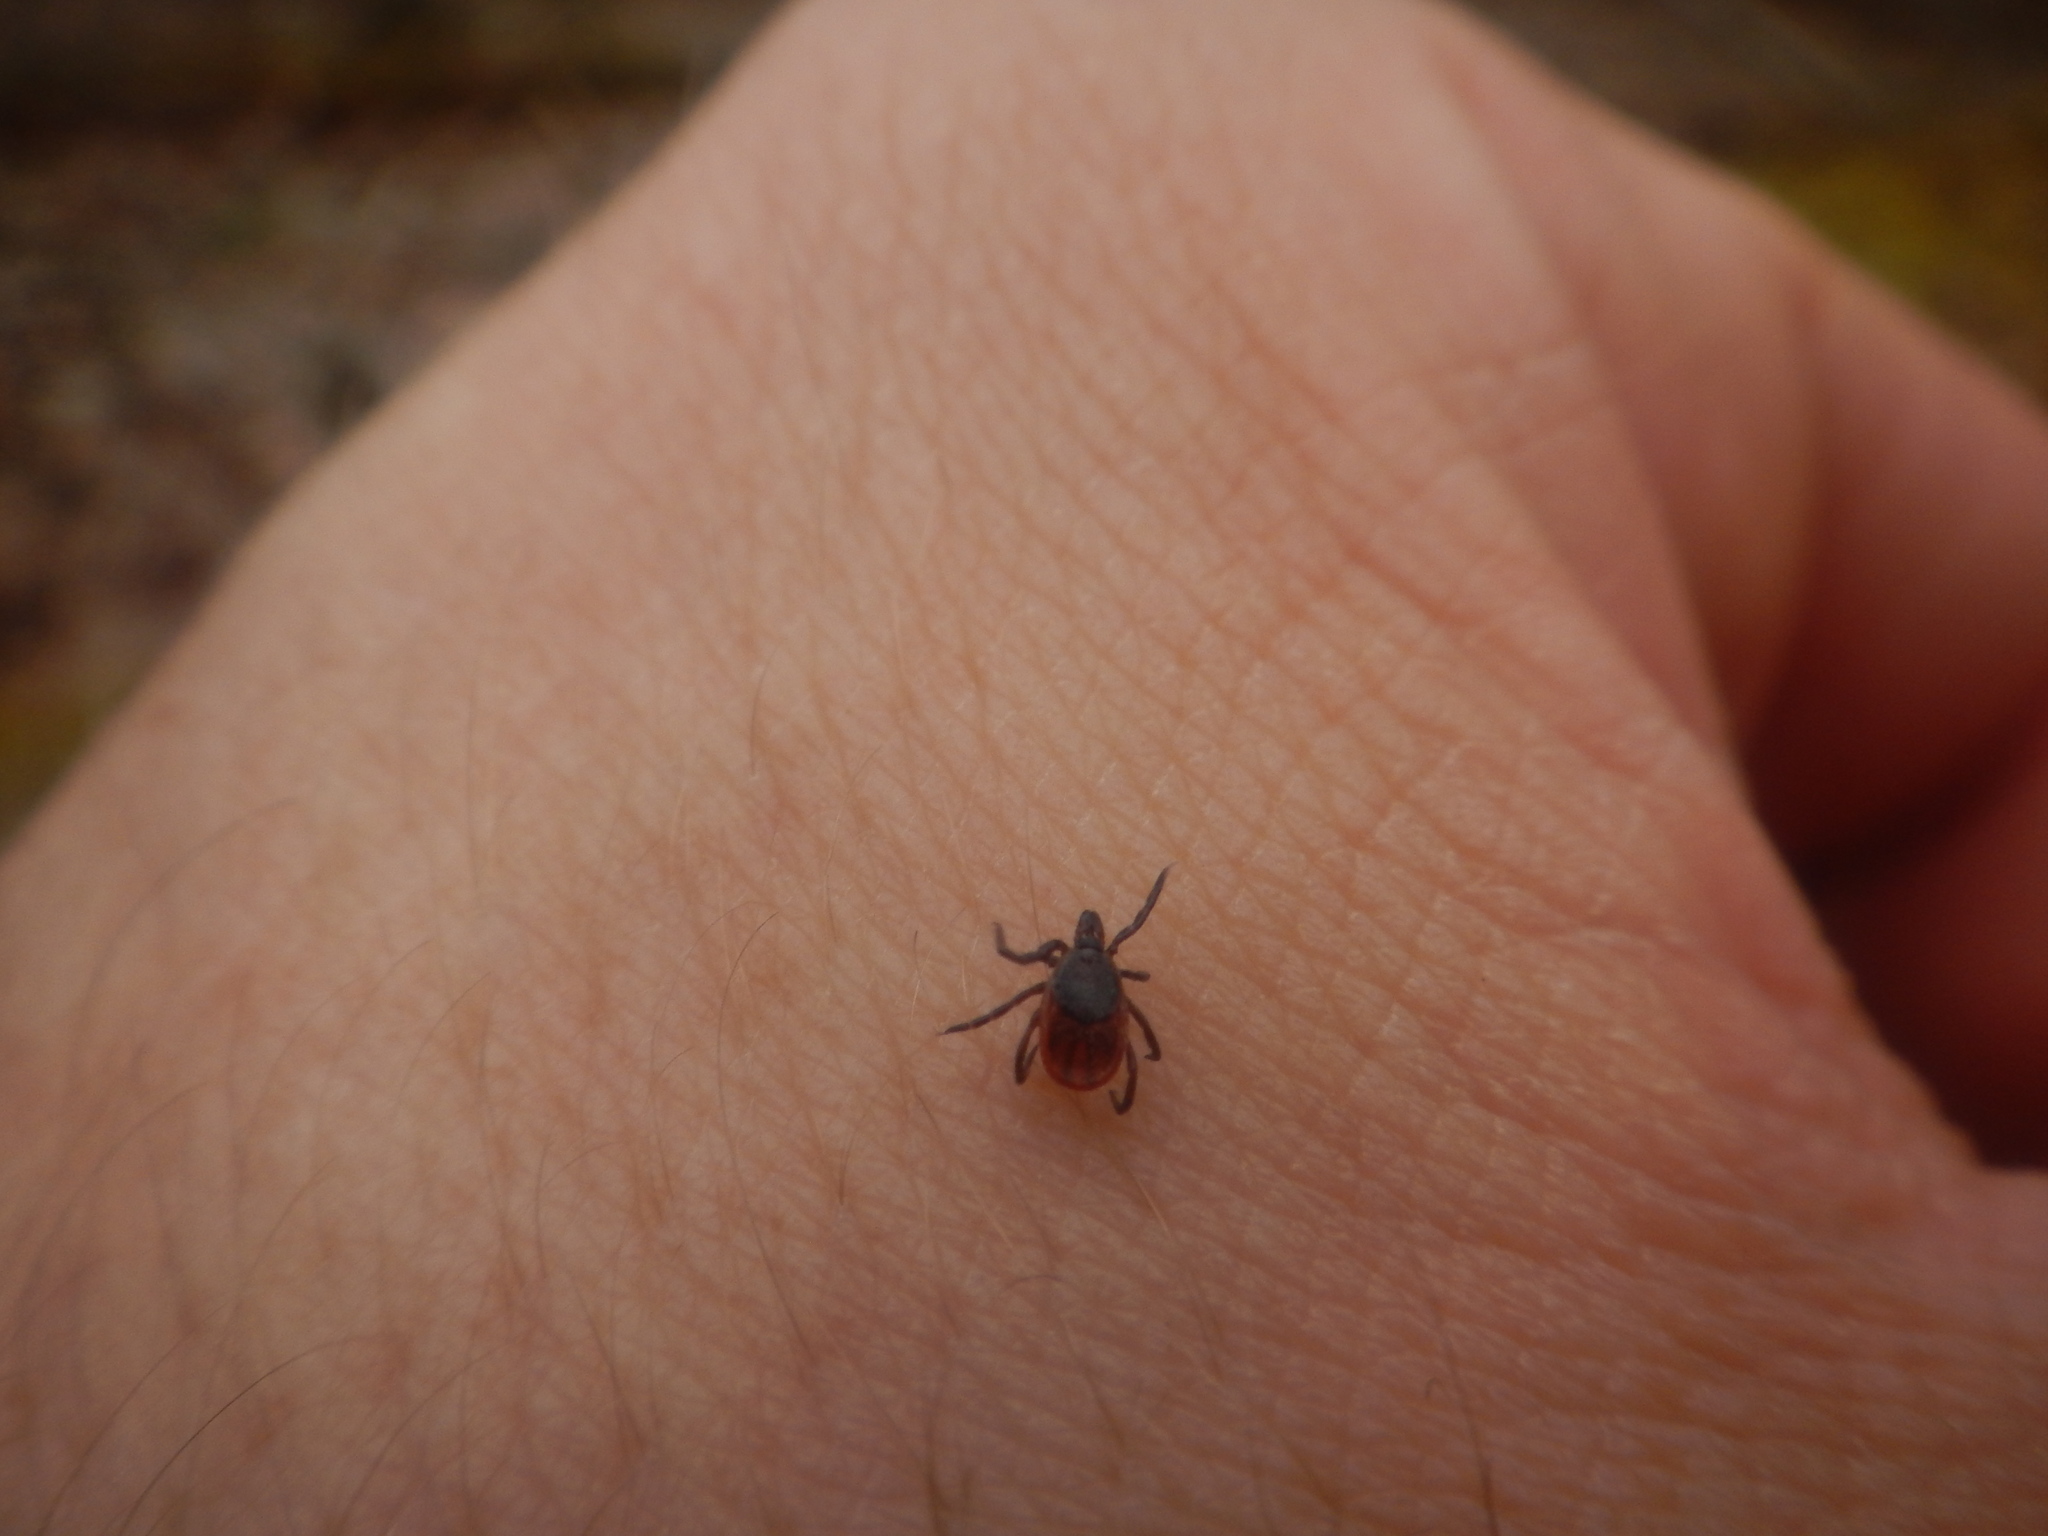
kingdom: Animalia
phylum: Arthropoda
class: Arachnida
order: Ixodida
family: Ixodidae
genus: Ixodes
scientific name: Ixodes scapularis
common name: Black legged tick
